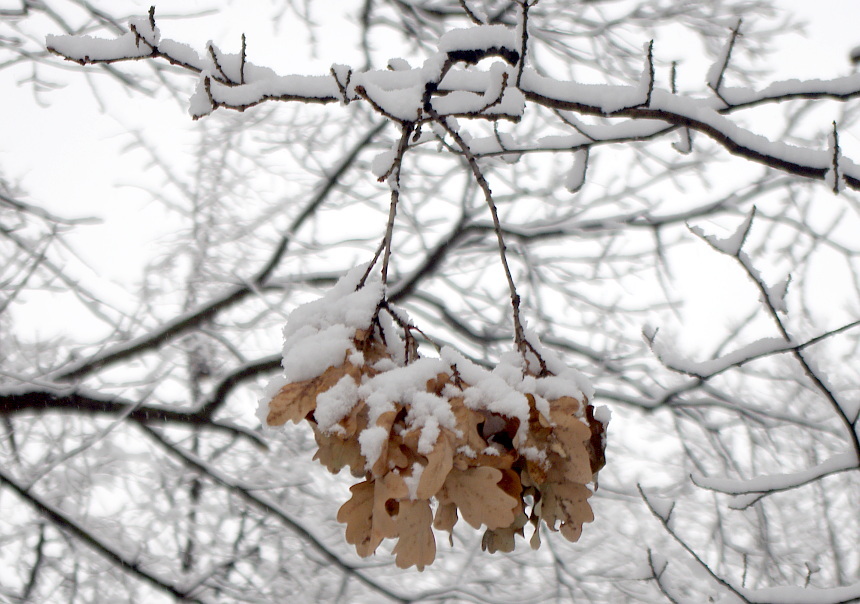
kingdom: Plantae
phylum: Tracheophyta
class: Magnoliopsida
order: Fagales
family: Fagaceae
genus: Quercus
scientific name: Quercus robur
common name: Pedunculate oak
